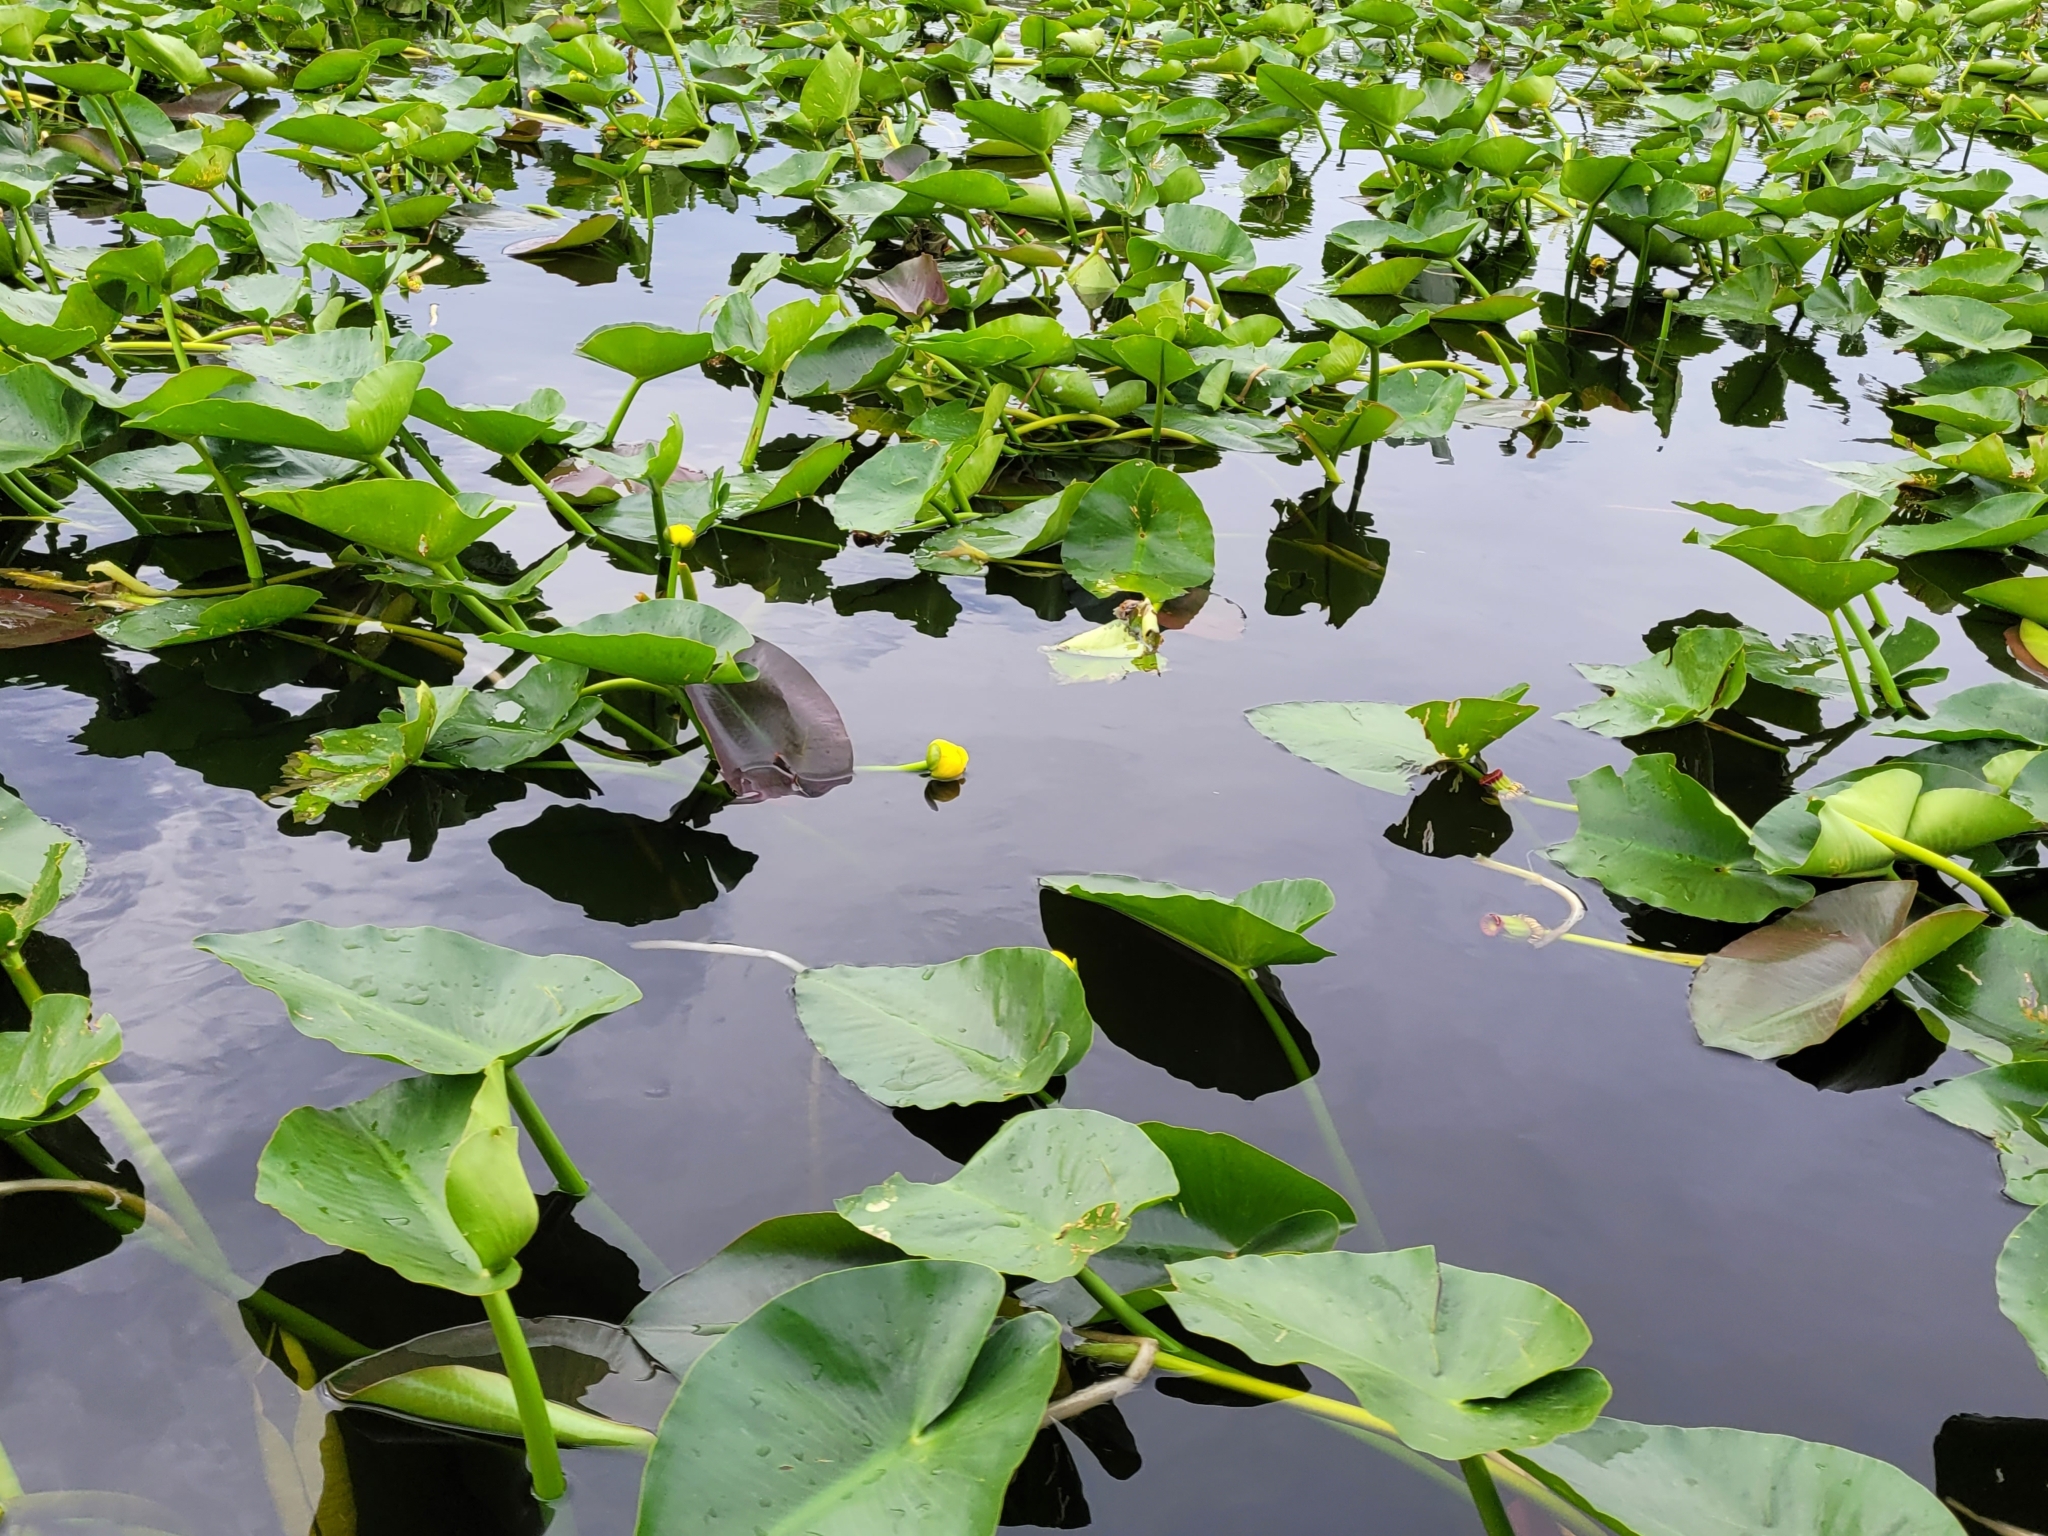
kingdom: Plantae
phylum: Tracheophyta
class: Magnoliopsida
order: Nymphaeales
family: Nymphaeaceae
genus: Nuphar
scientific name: Nuphar advena
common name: Spatter-dock
